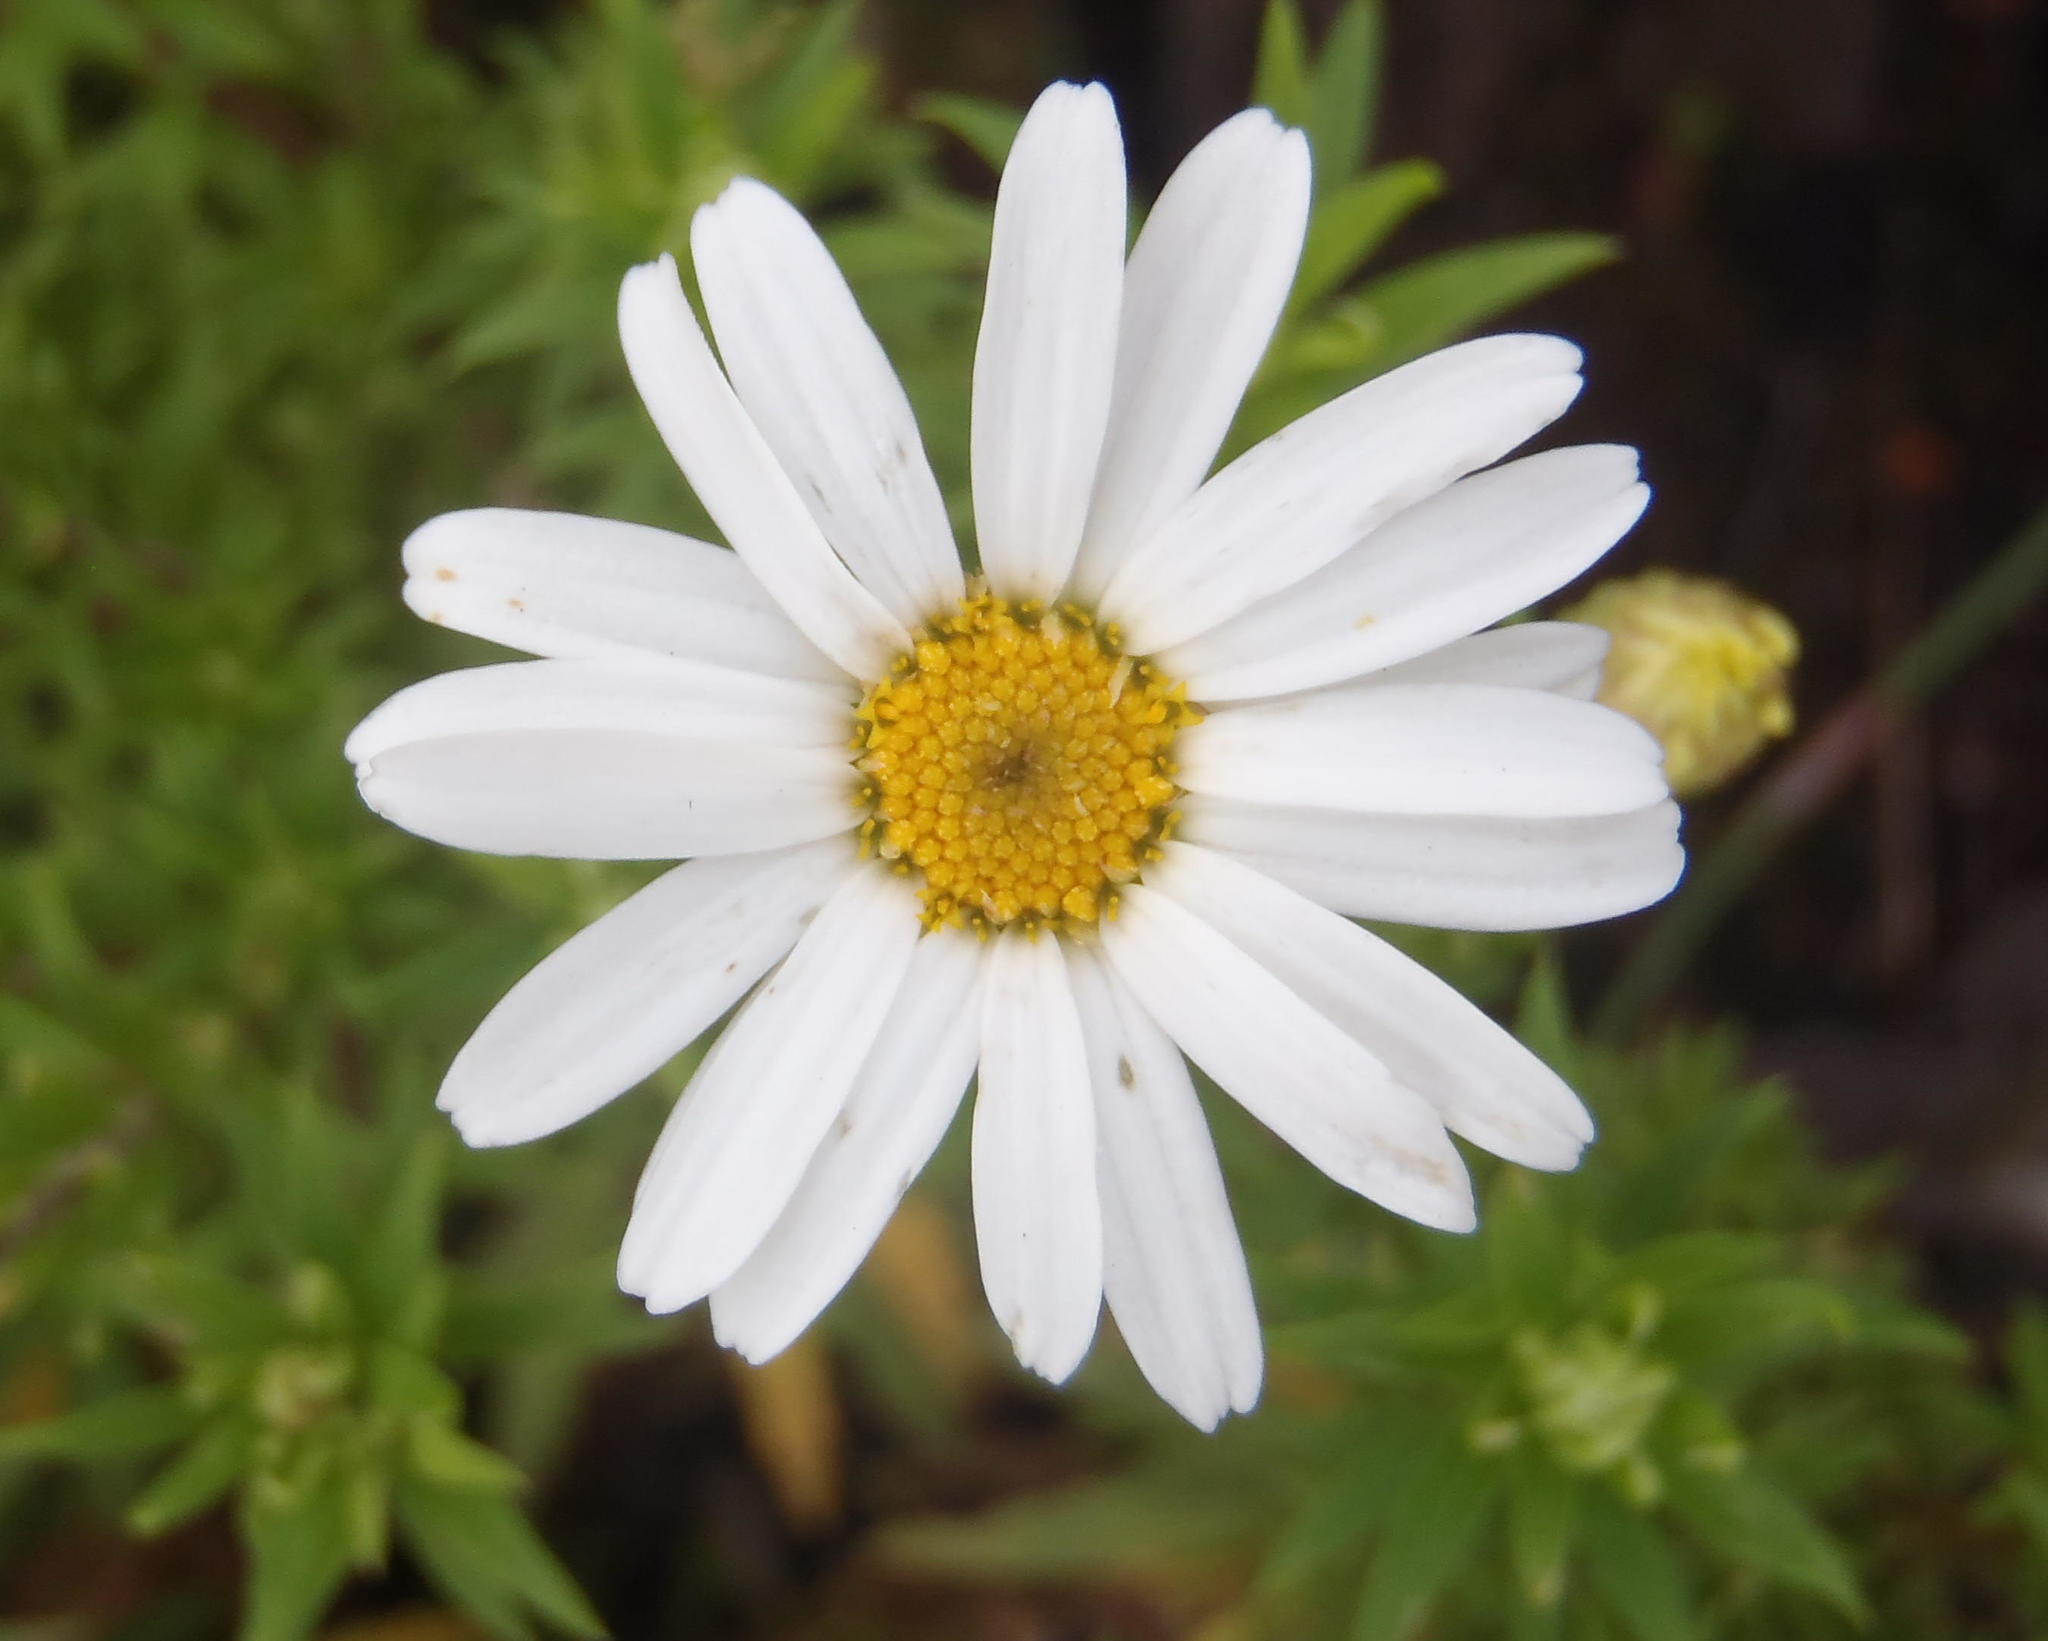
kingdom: Plantae
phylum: Tracheophyta
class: Magnoliopsida
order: Asterales
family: Asteraceae
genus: Osmitopsis
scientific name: Osmitopsis osmitoides
